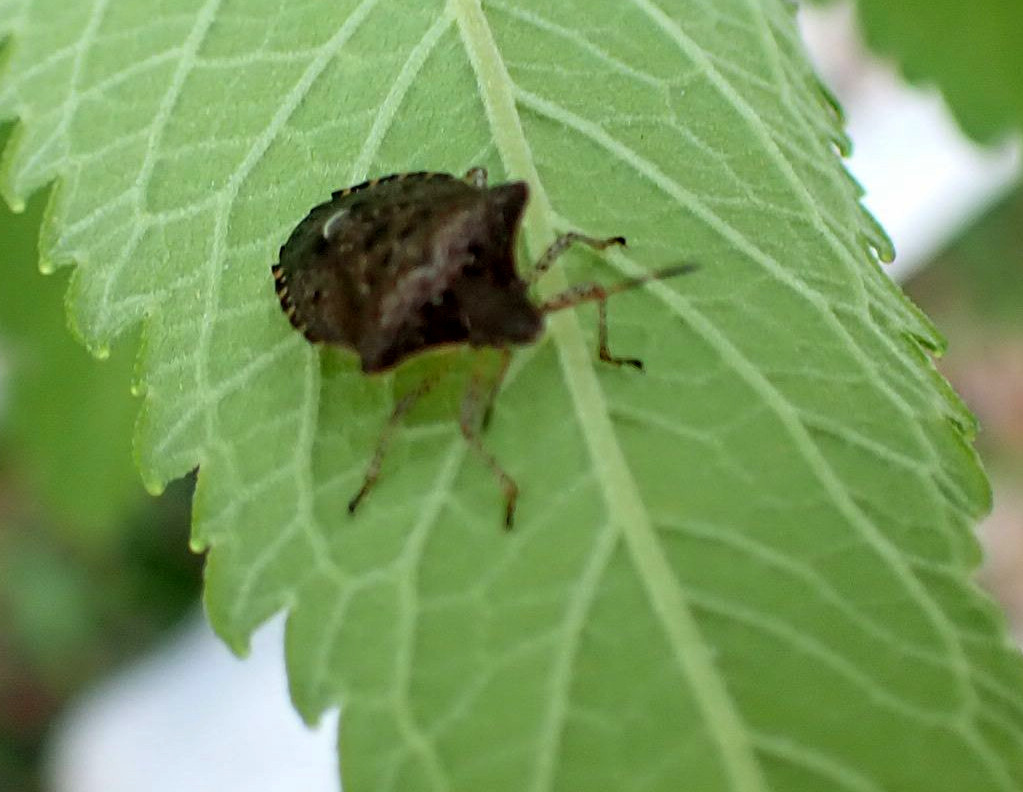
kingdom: Animalia
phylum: Arthropoda
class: Insecta
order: Hemiptera
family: Pentatomidae
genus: Euschistus
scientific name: Euschistus tristigmus
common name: Dusky stink bug
